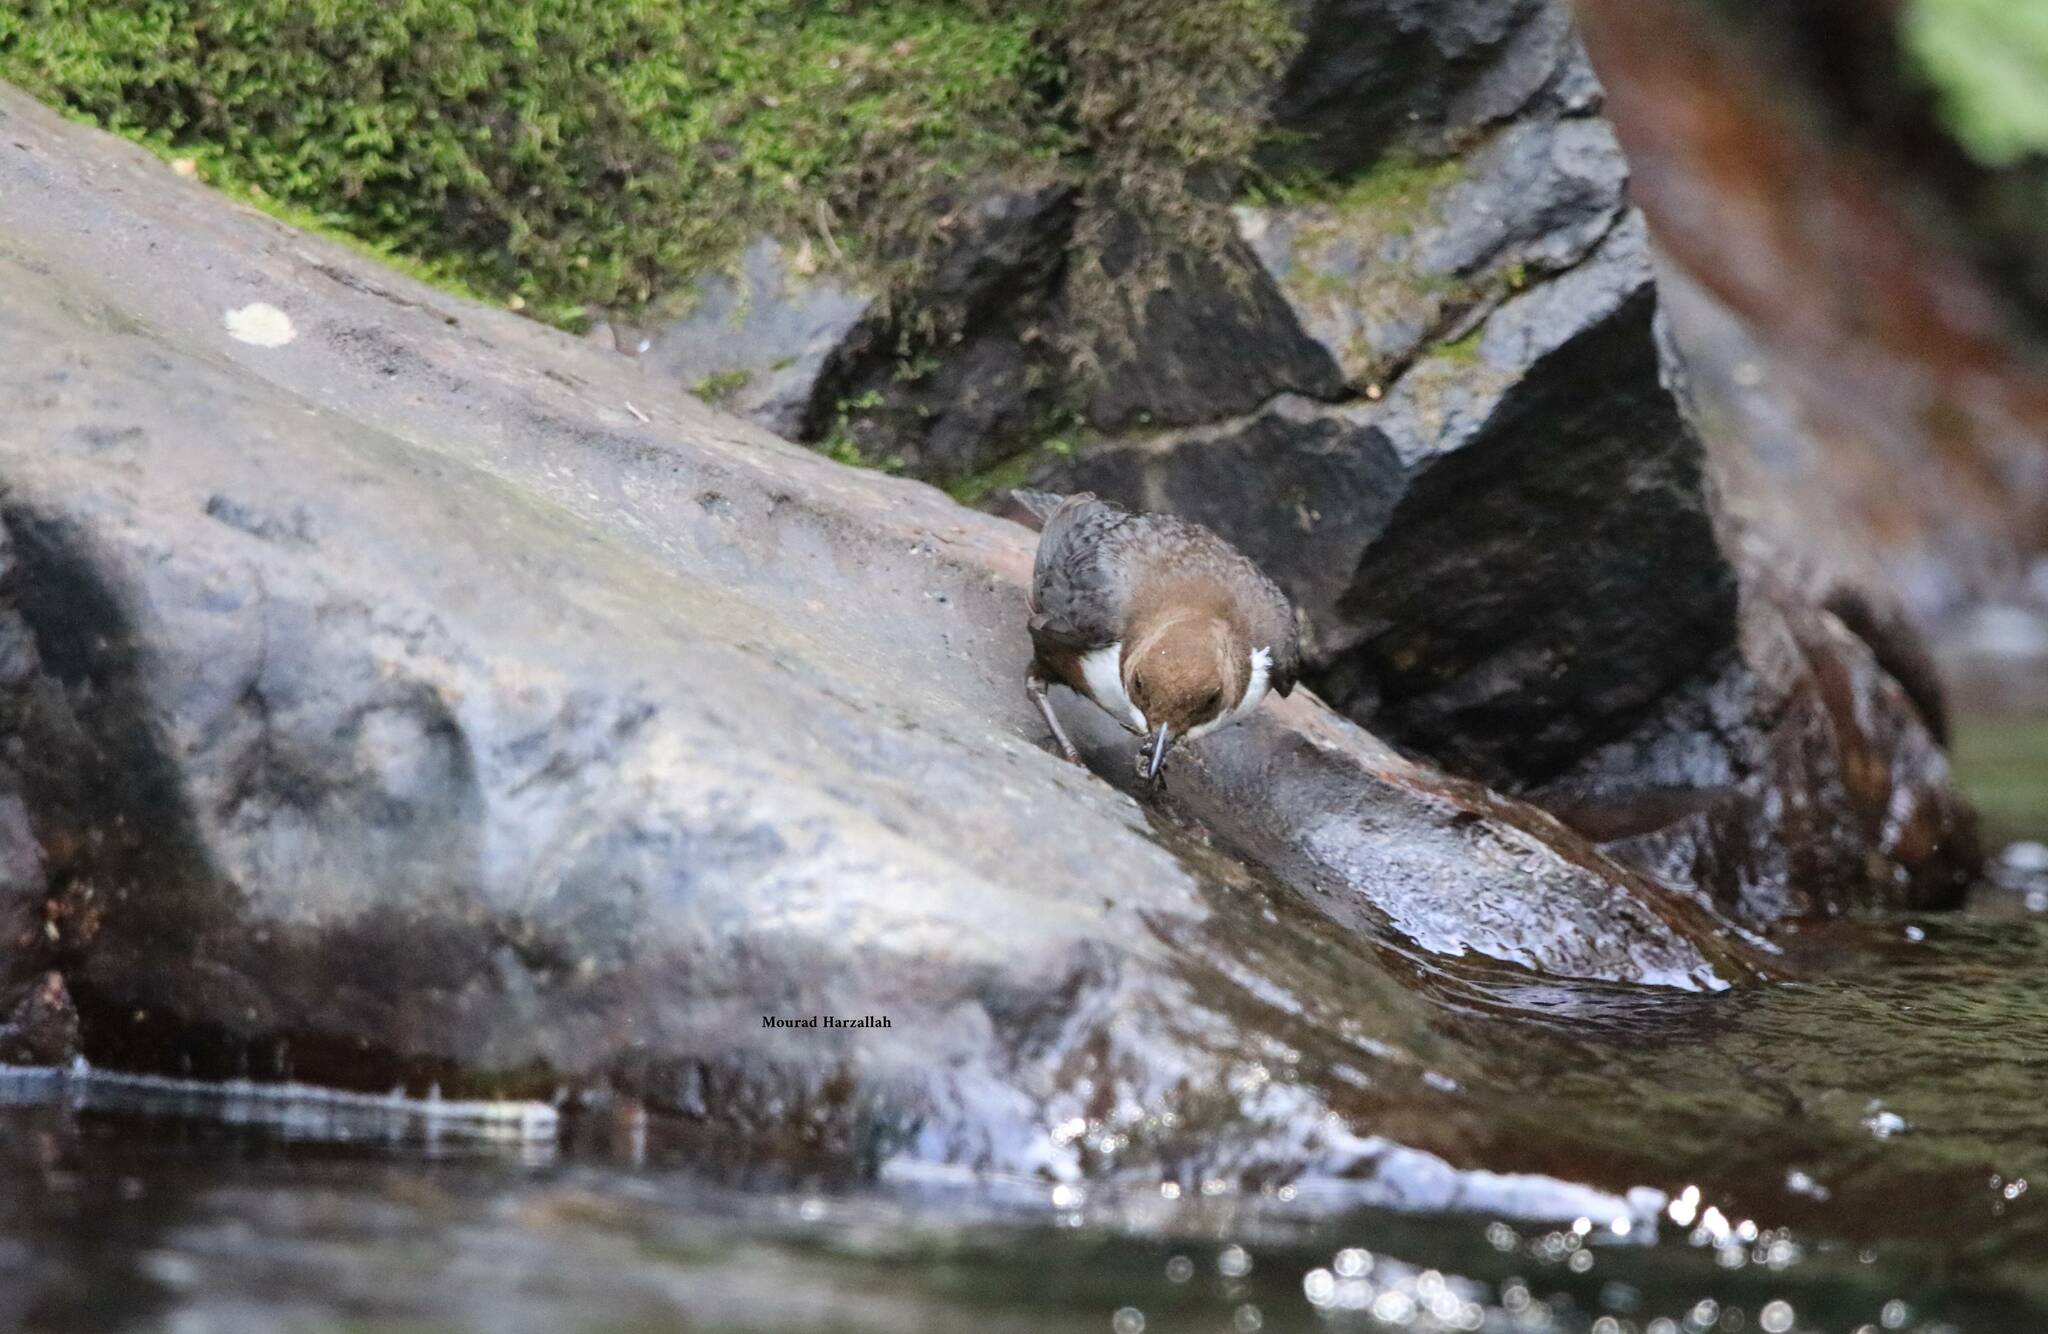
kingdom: Animalia
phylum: Chordata
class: Aves
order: Passeriformes
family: Cinclidae
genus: Cinclus
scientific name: Cinclus cinclus
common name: White-throated dipper
